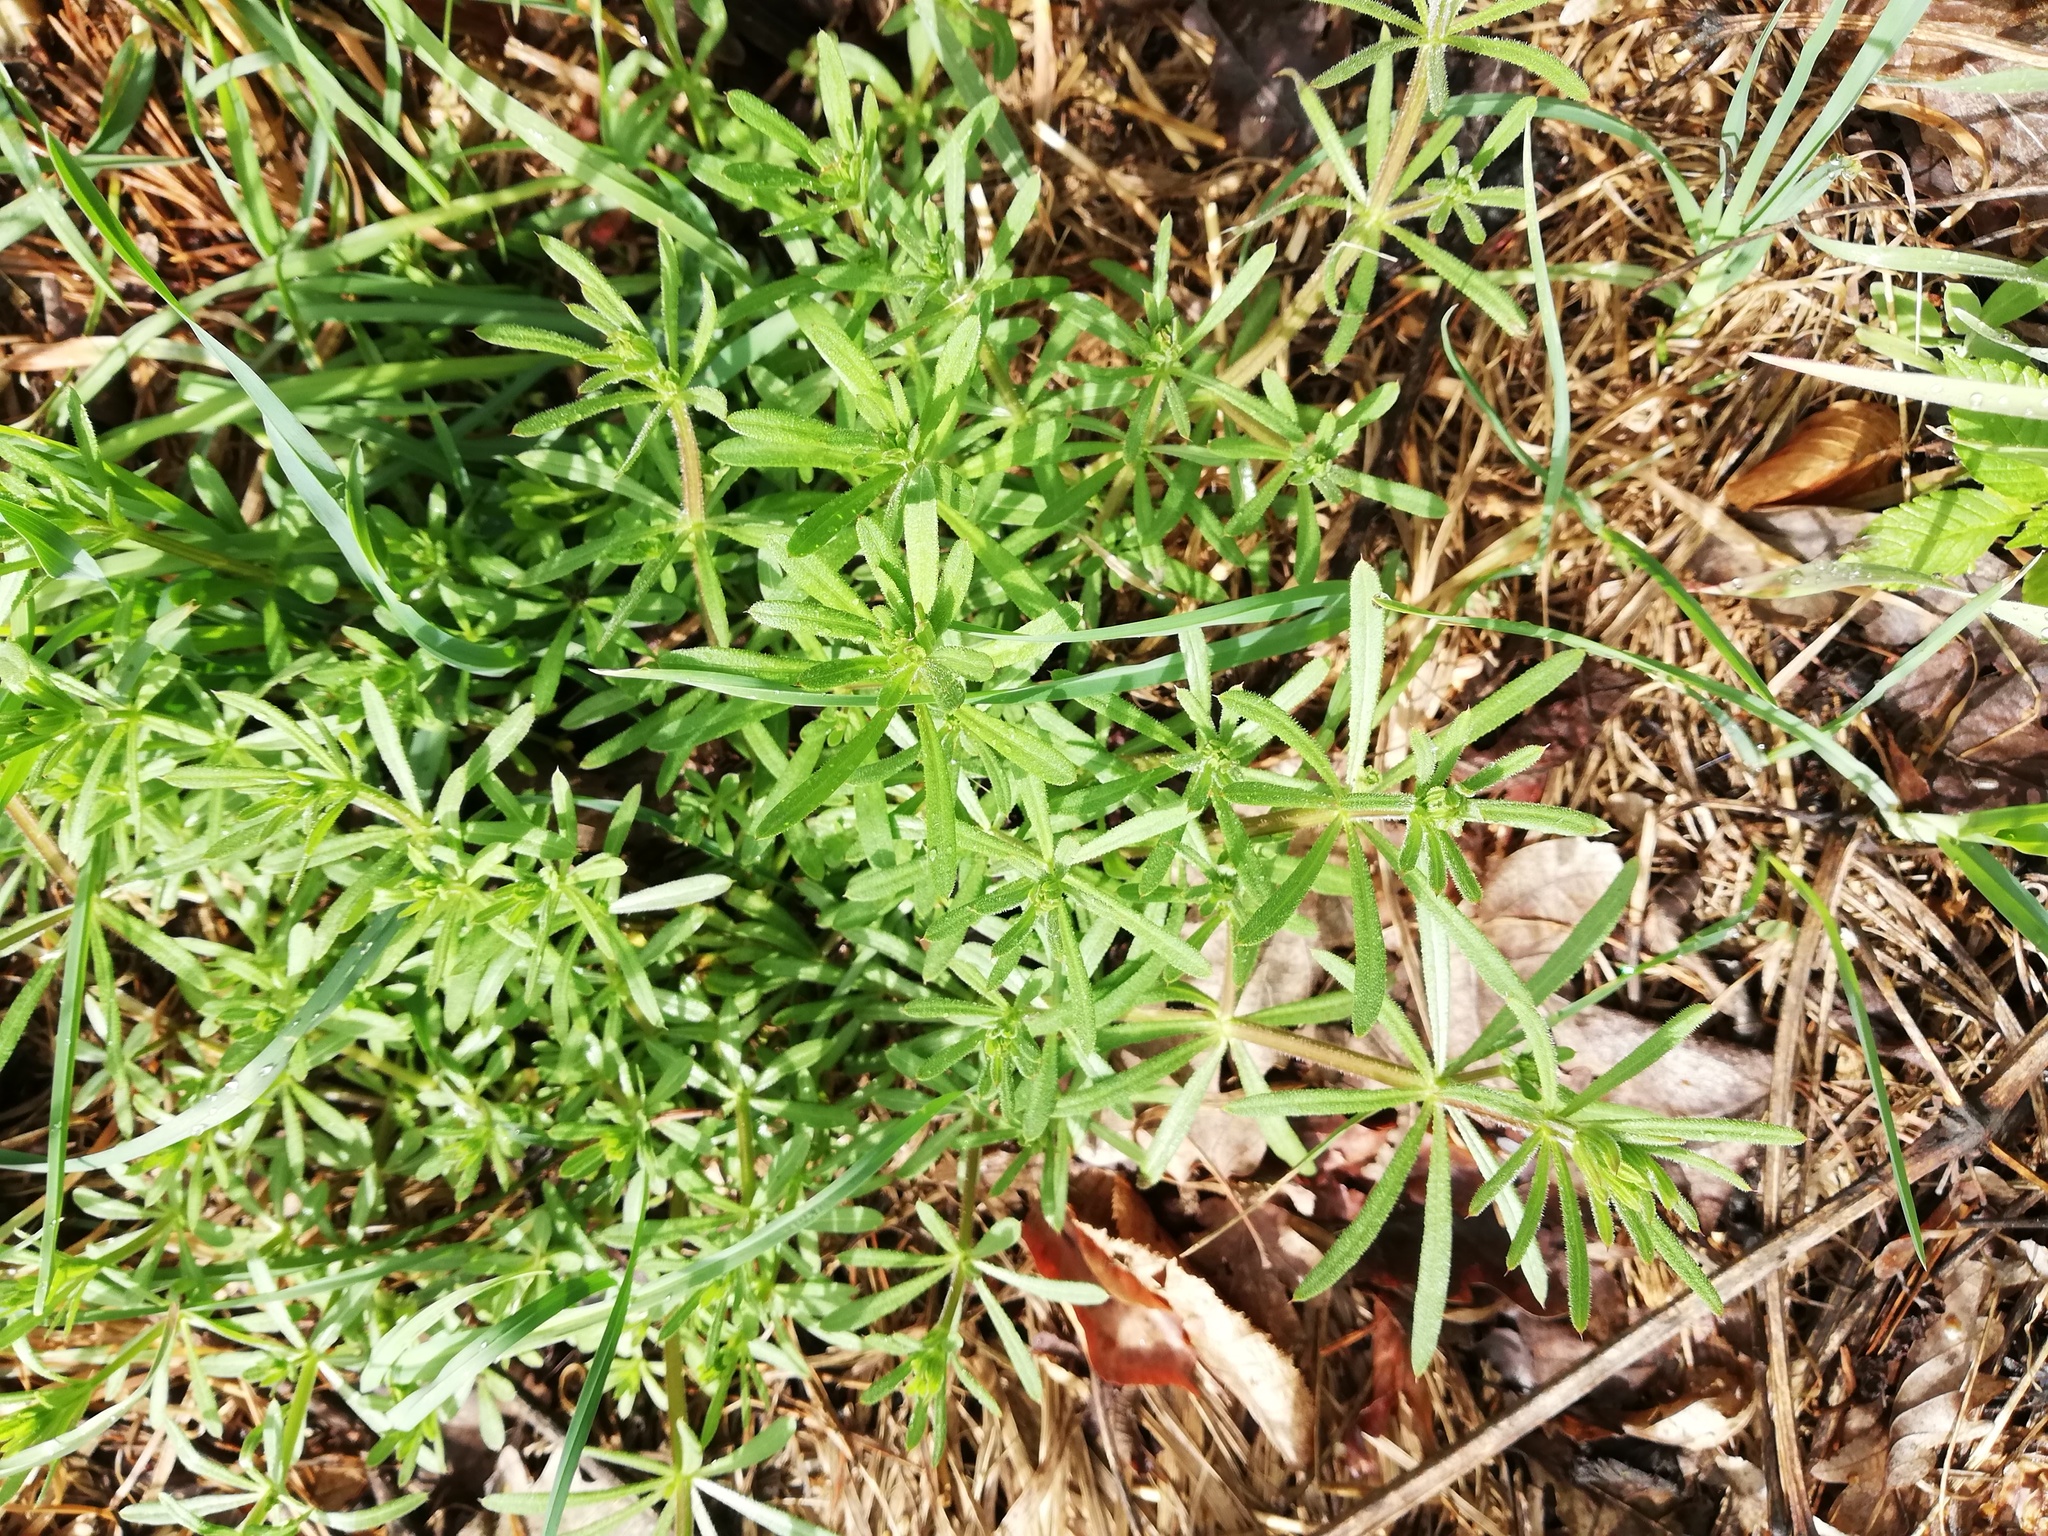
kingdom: Plantae
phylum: Tracheophyta
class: Magnoliopsida
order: Gentianales
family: Rubiaceae
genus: Galium
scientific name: Galium aparine
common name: Cleavers
